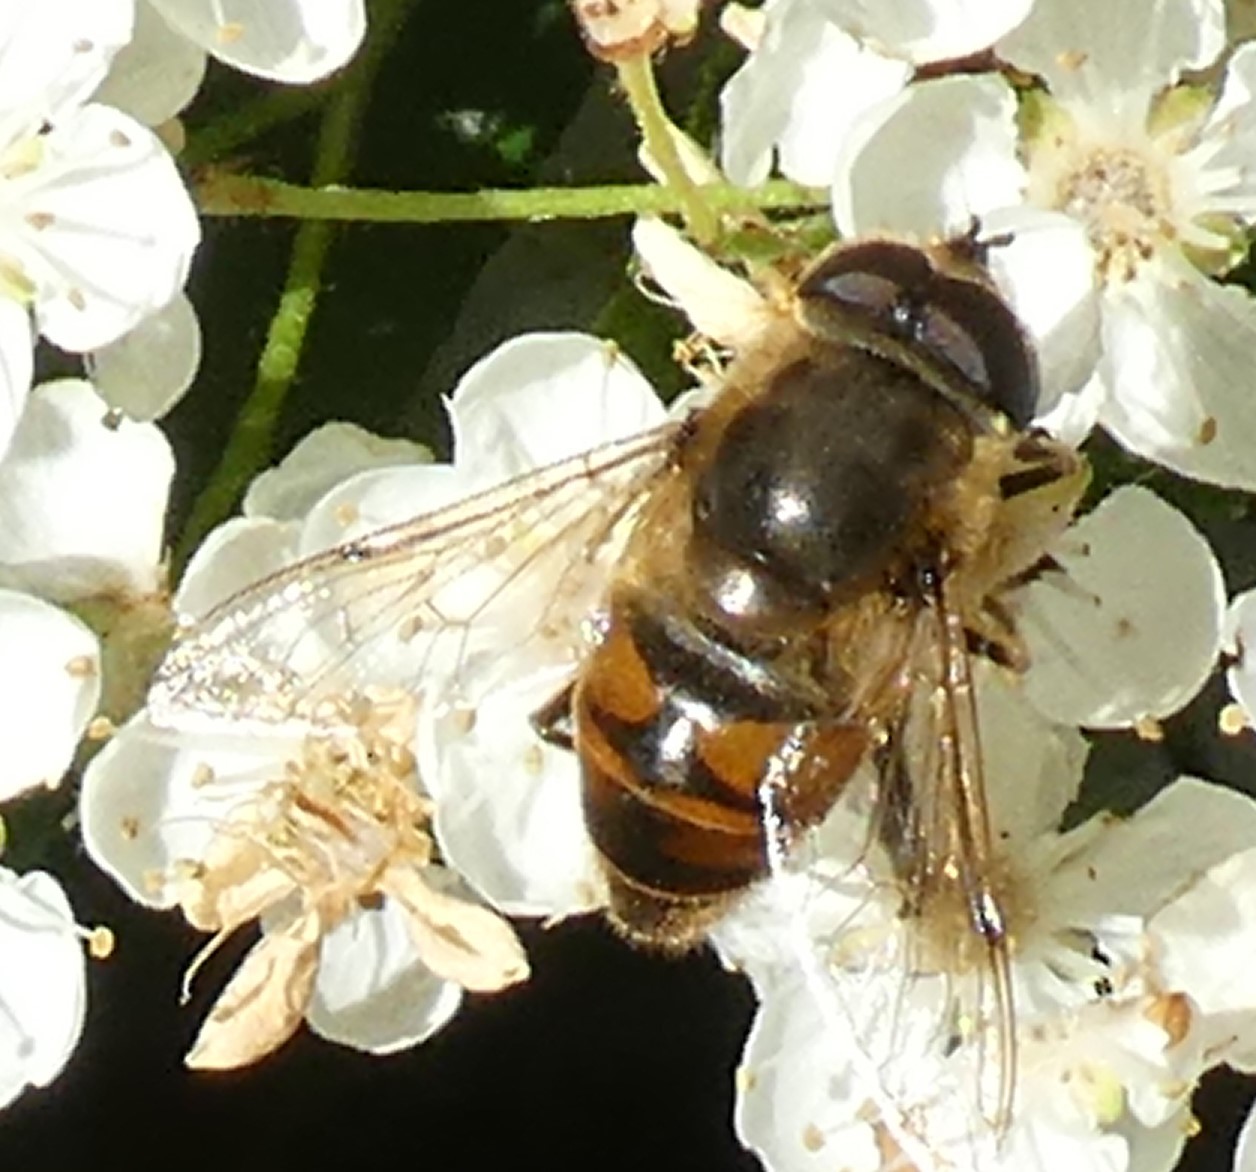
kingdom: Animalia
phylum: Arthropoda
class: Insecta
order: Diptera
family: Syrphidae
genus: Eristalis
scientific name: Eristalis tenax
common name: Drone fly
